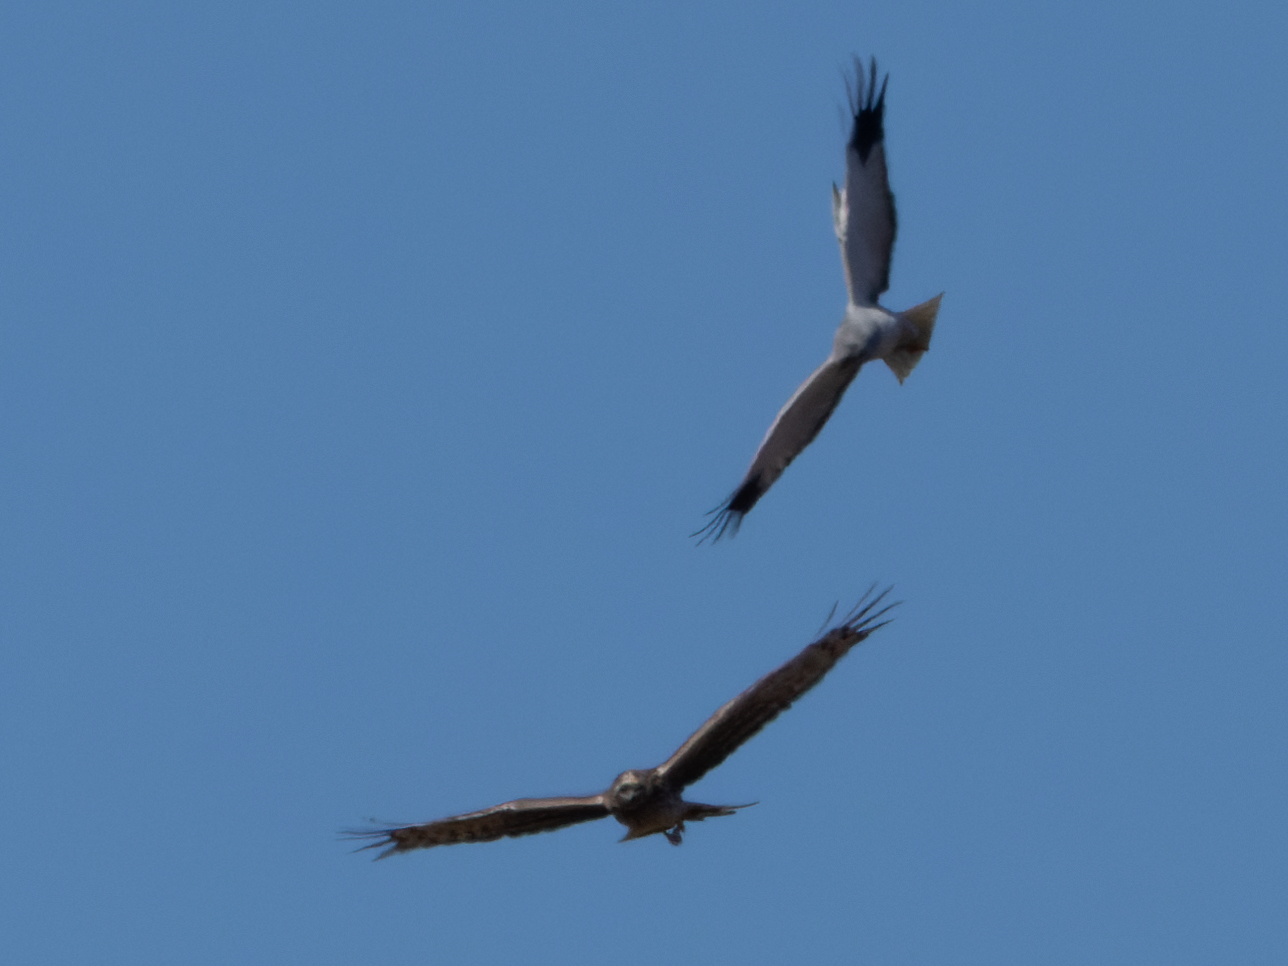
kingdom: Animalia
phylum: Chordata
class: Aves
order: Accipitriformes
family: Accipitridae
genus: Circus
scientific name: Circus cyaneus
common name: Hen harrier
